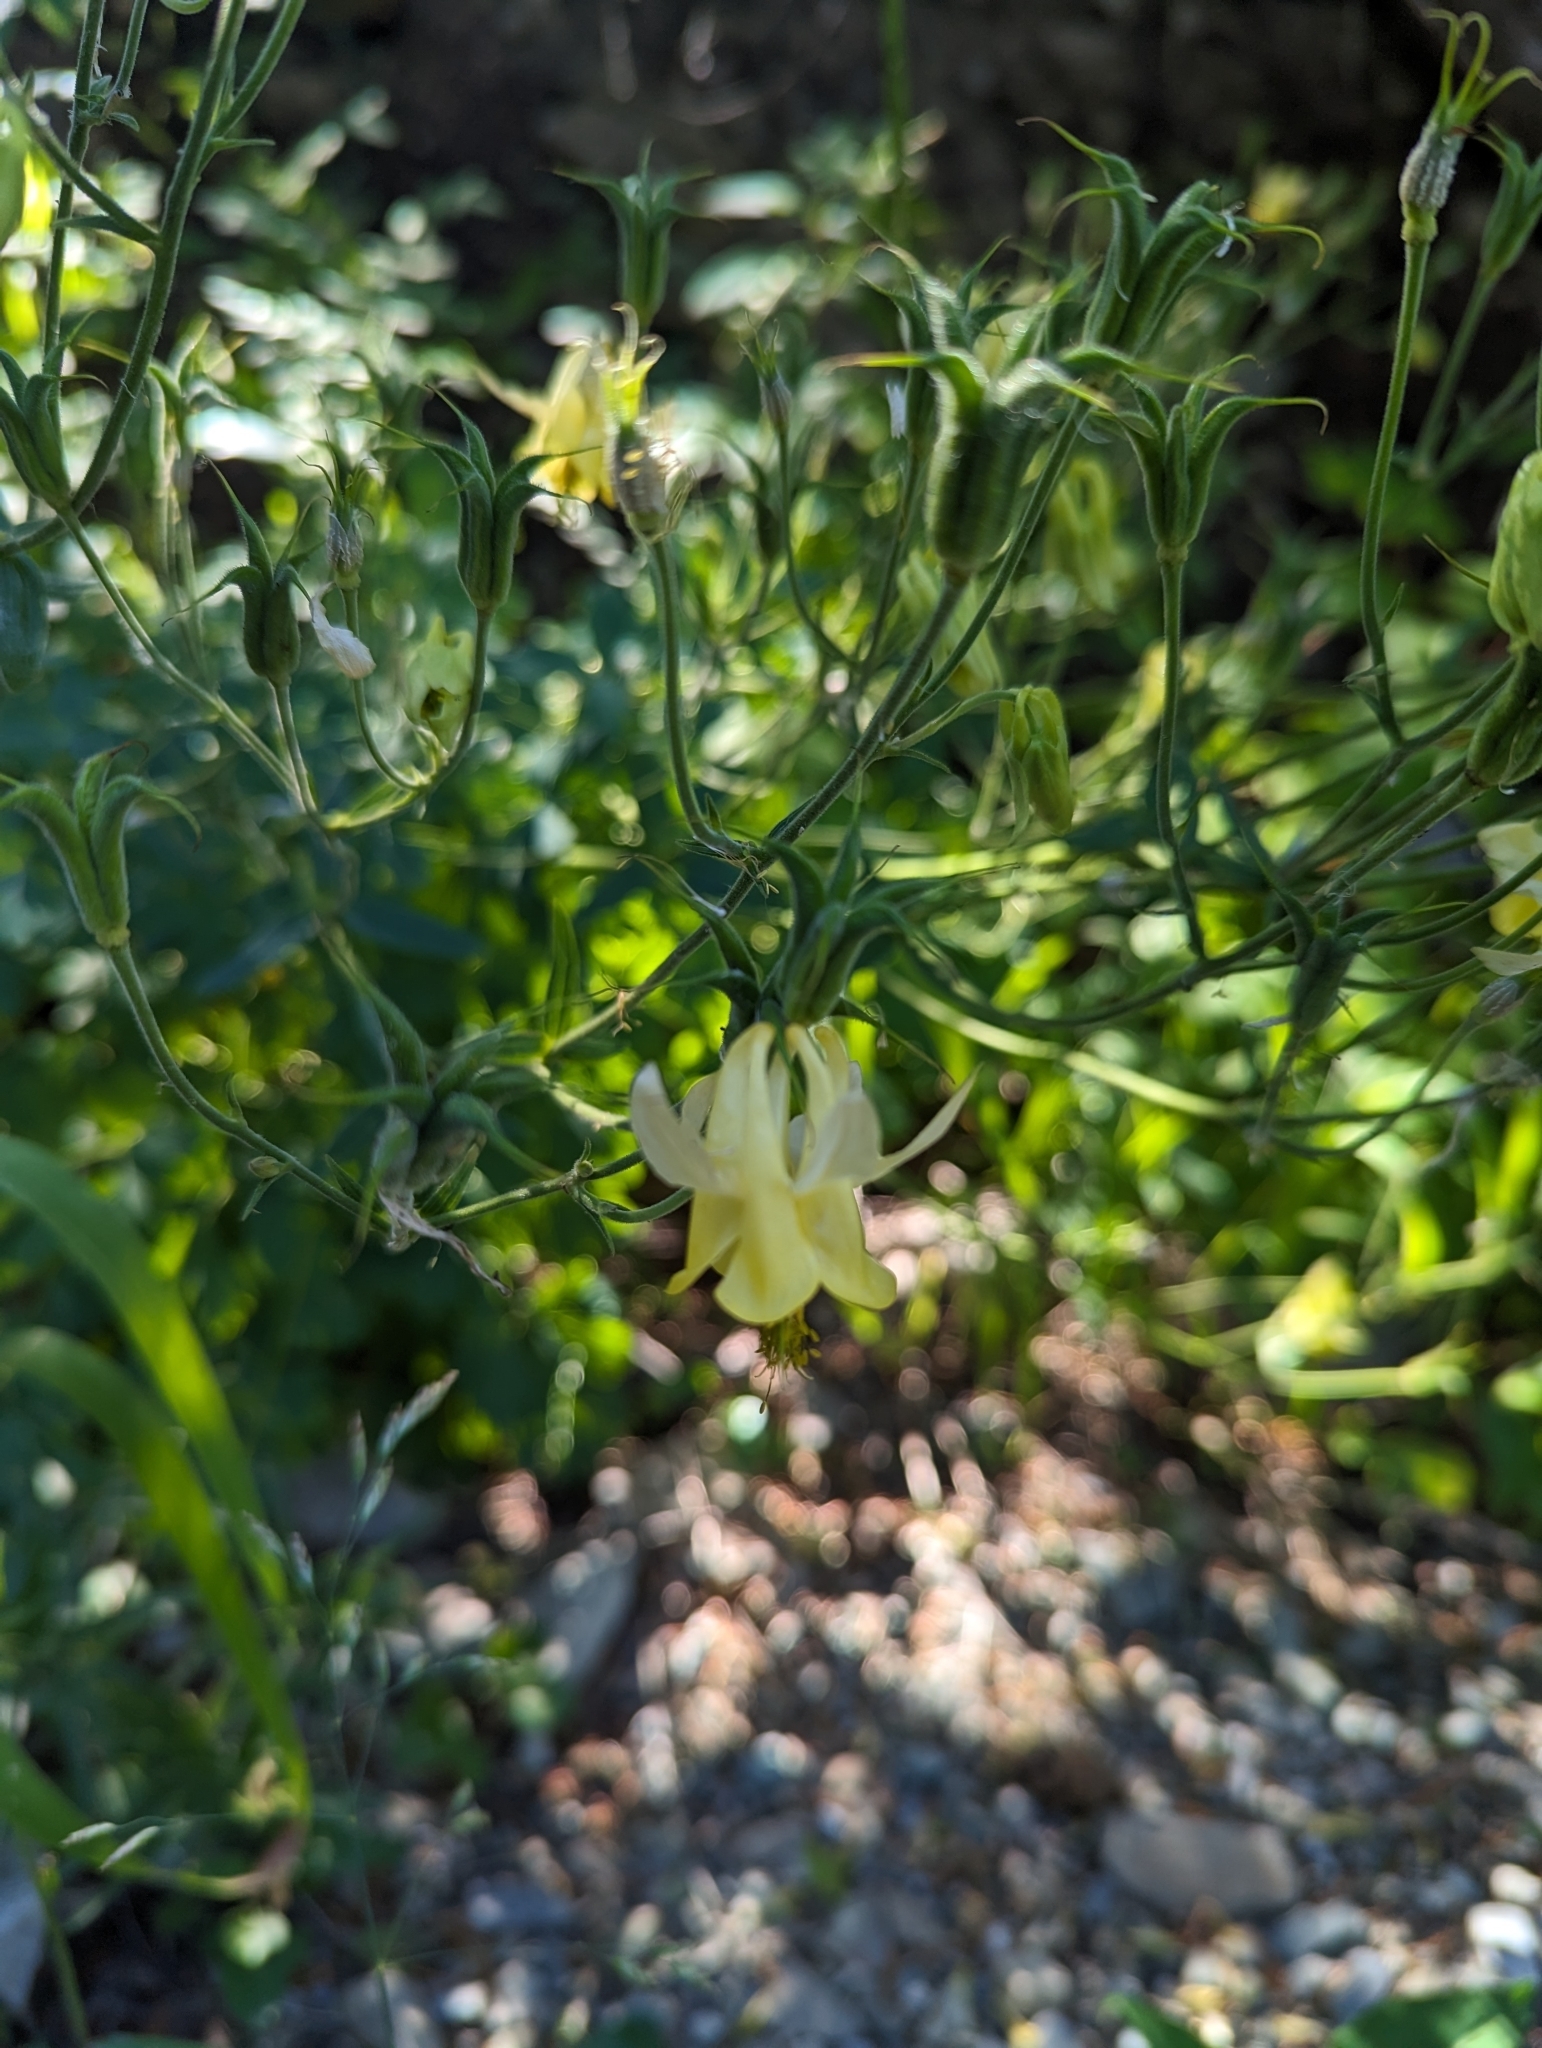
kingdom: Plantae
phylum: Tracheophyta
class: Magnoliopsida
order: Ranunculales
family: Ranunculaceae
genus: Aquilegia
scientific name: Aquilegia flavescens
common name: Yellow columbine
